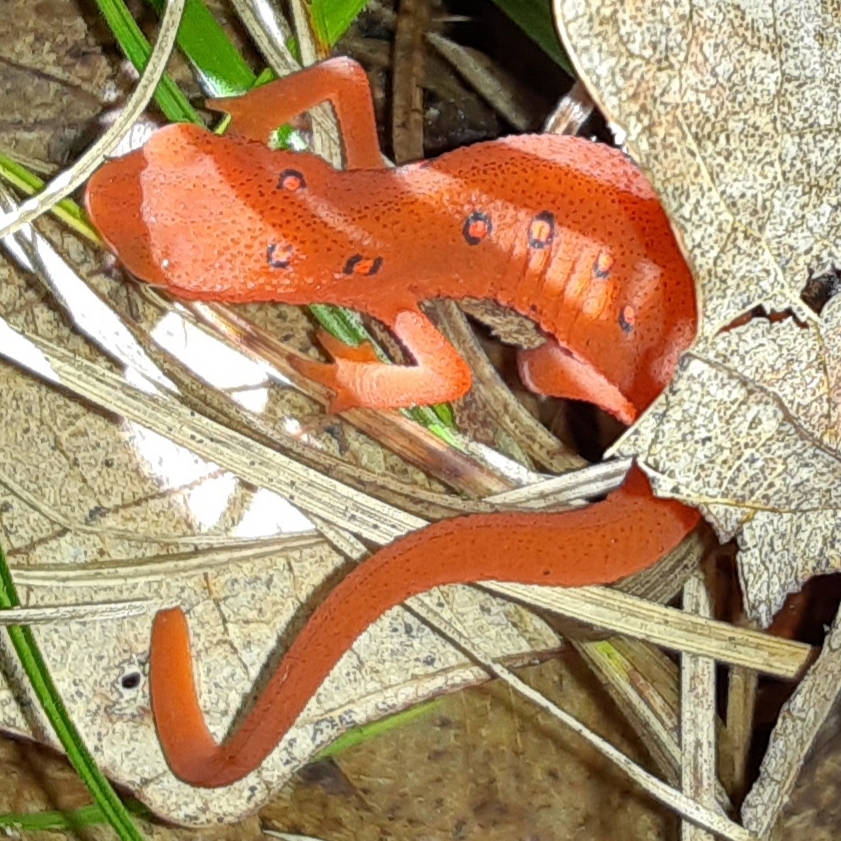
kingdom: Animalia
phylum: Chordata
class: Amphibia
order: Caudata
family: Salamandridae
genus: Notophthalmus
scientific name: Notophthalmus viridescens
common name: Eastern newt
